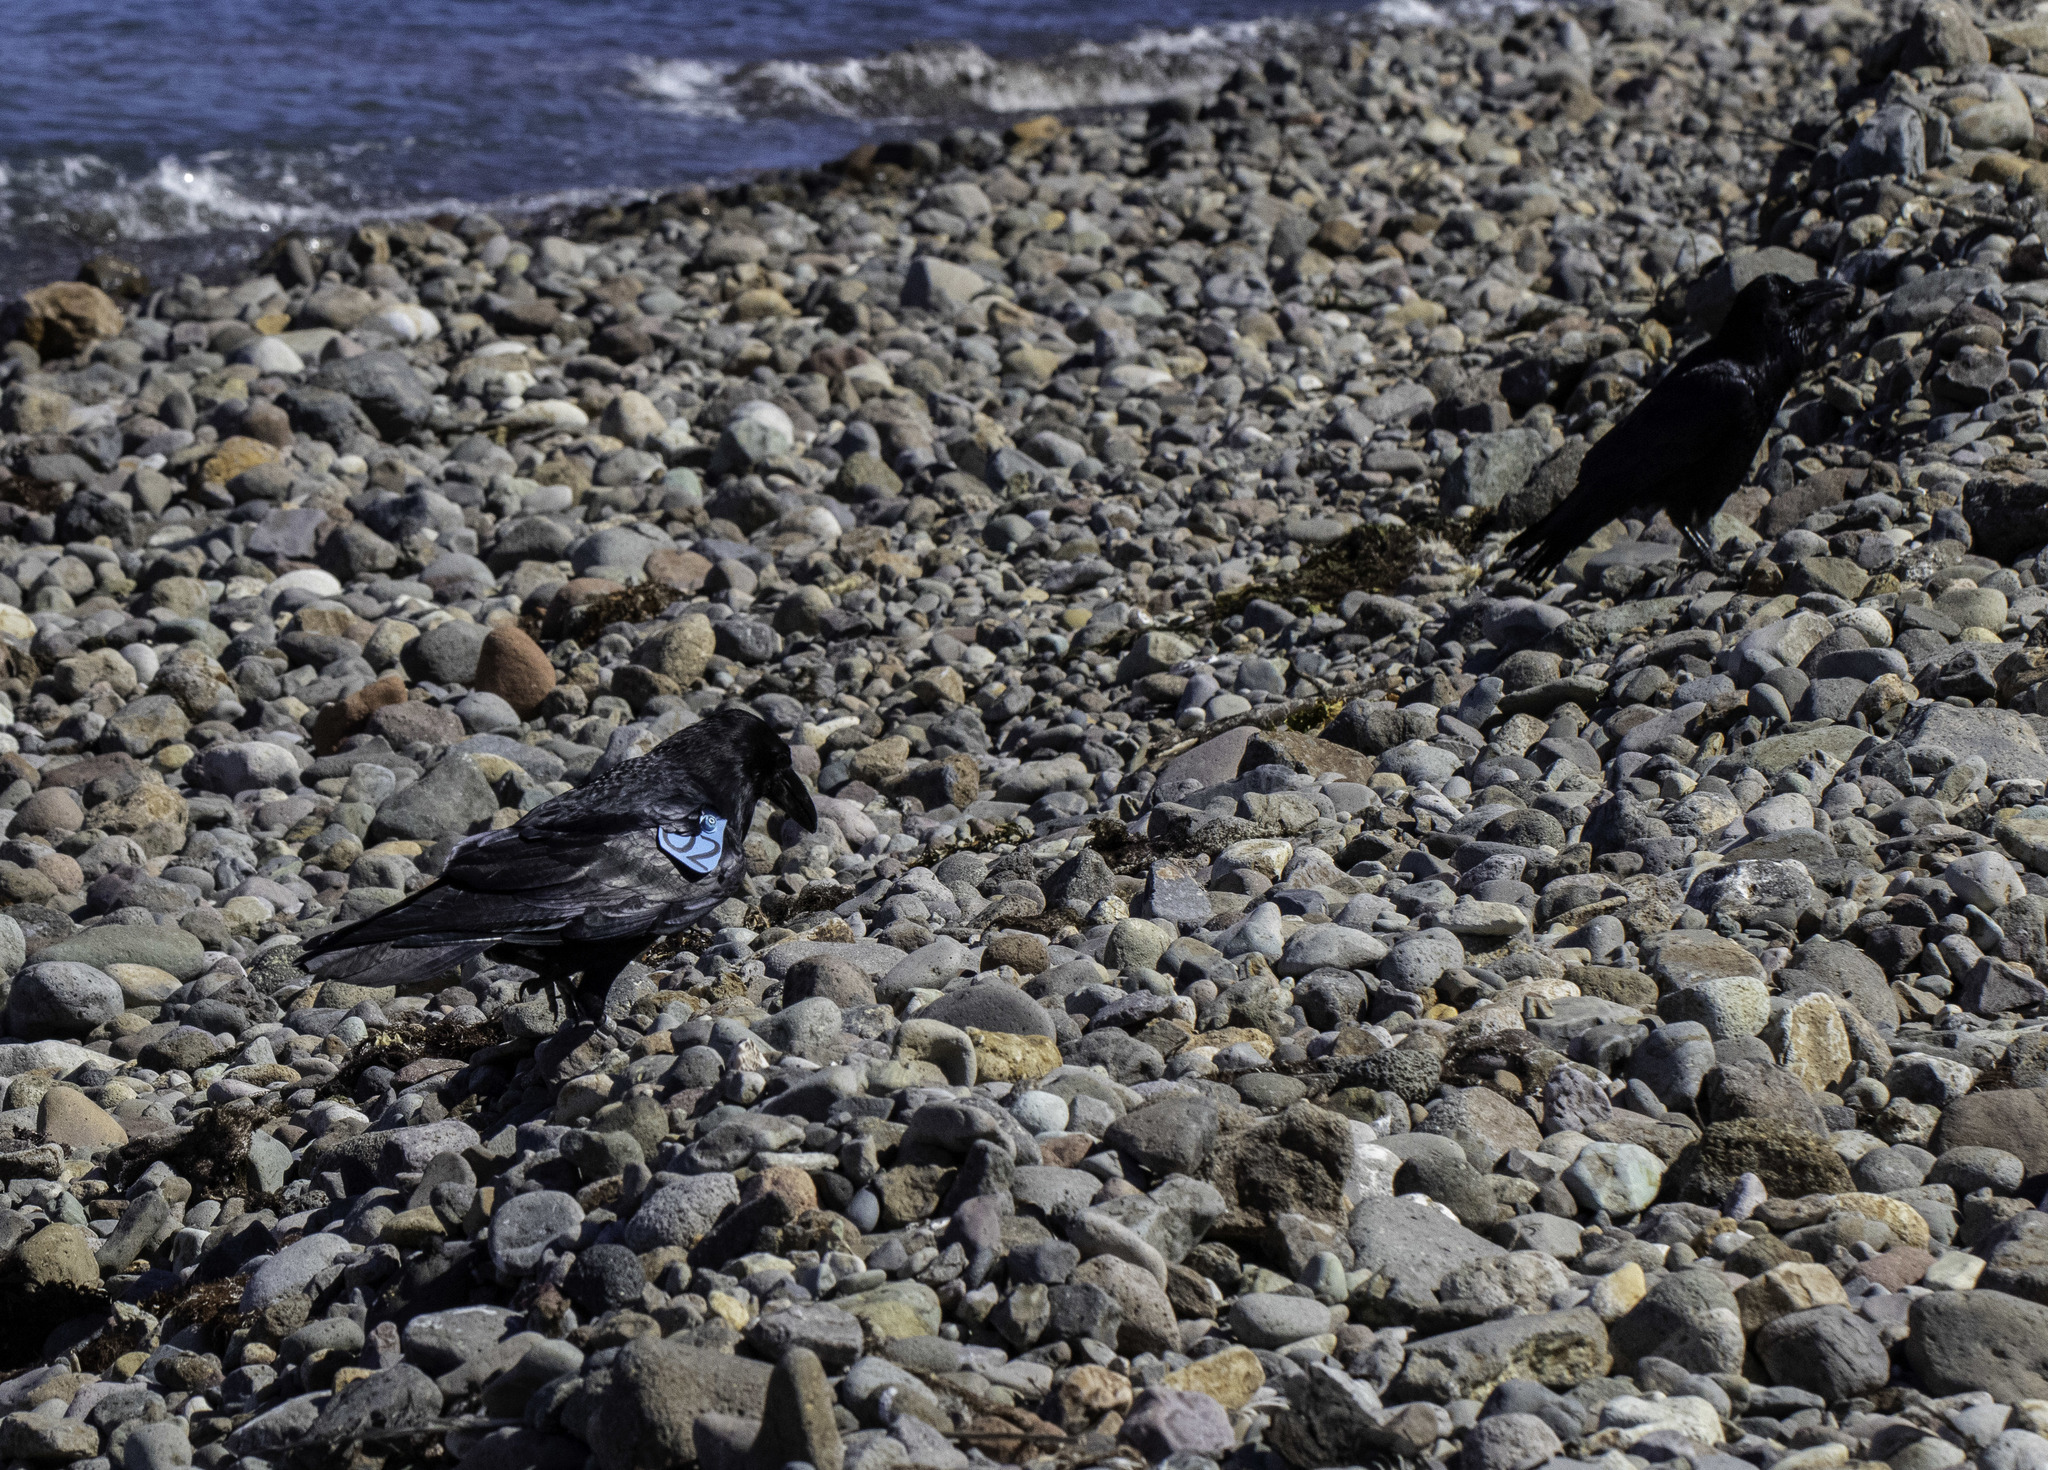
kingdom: Animalia
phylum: Chordata
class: Aves
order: Passeriformes
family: Corvidae
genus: Corvus
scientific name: Corvus corax
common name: Common raven
